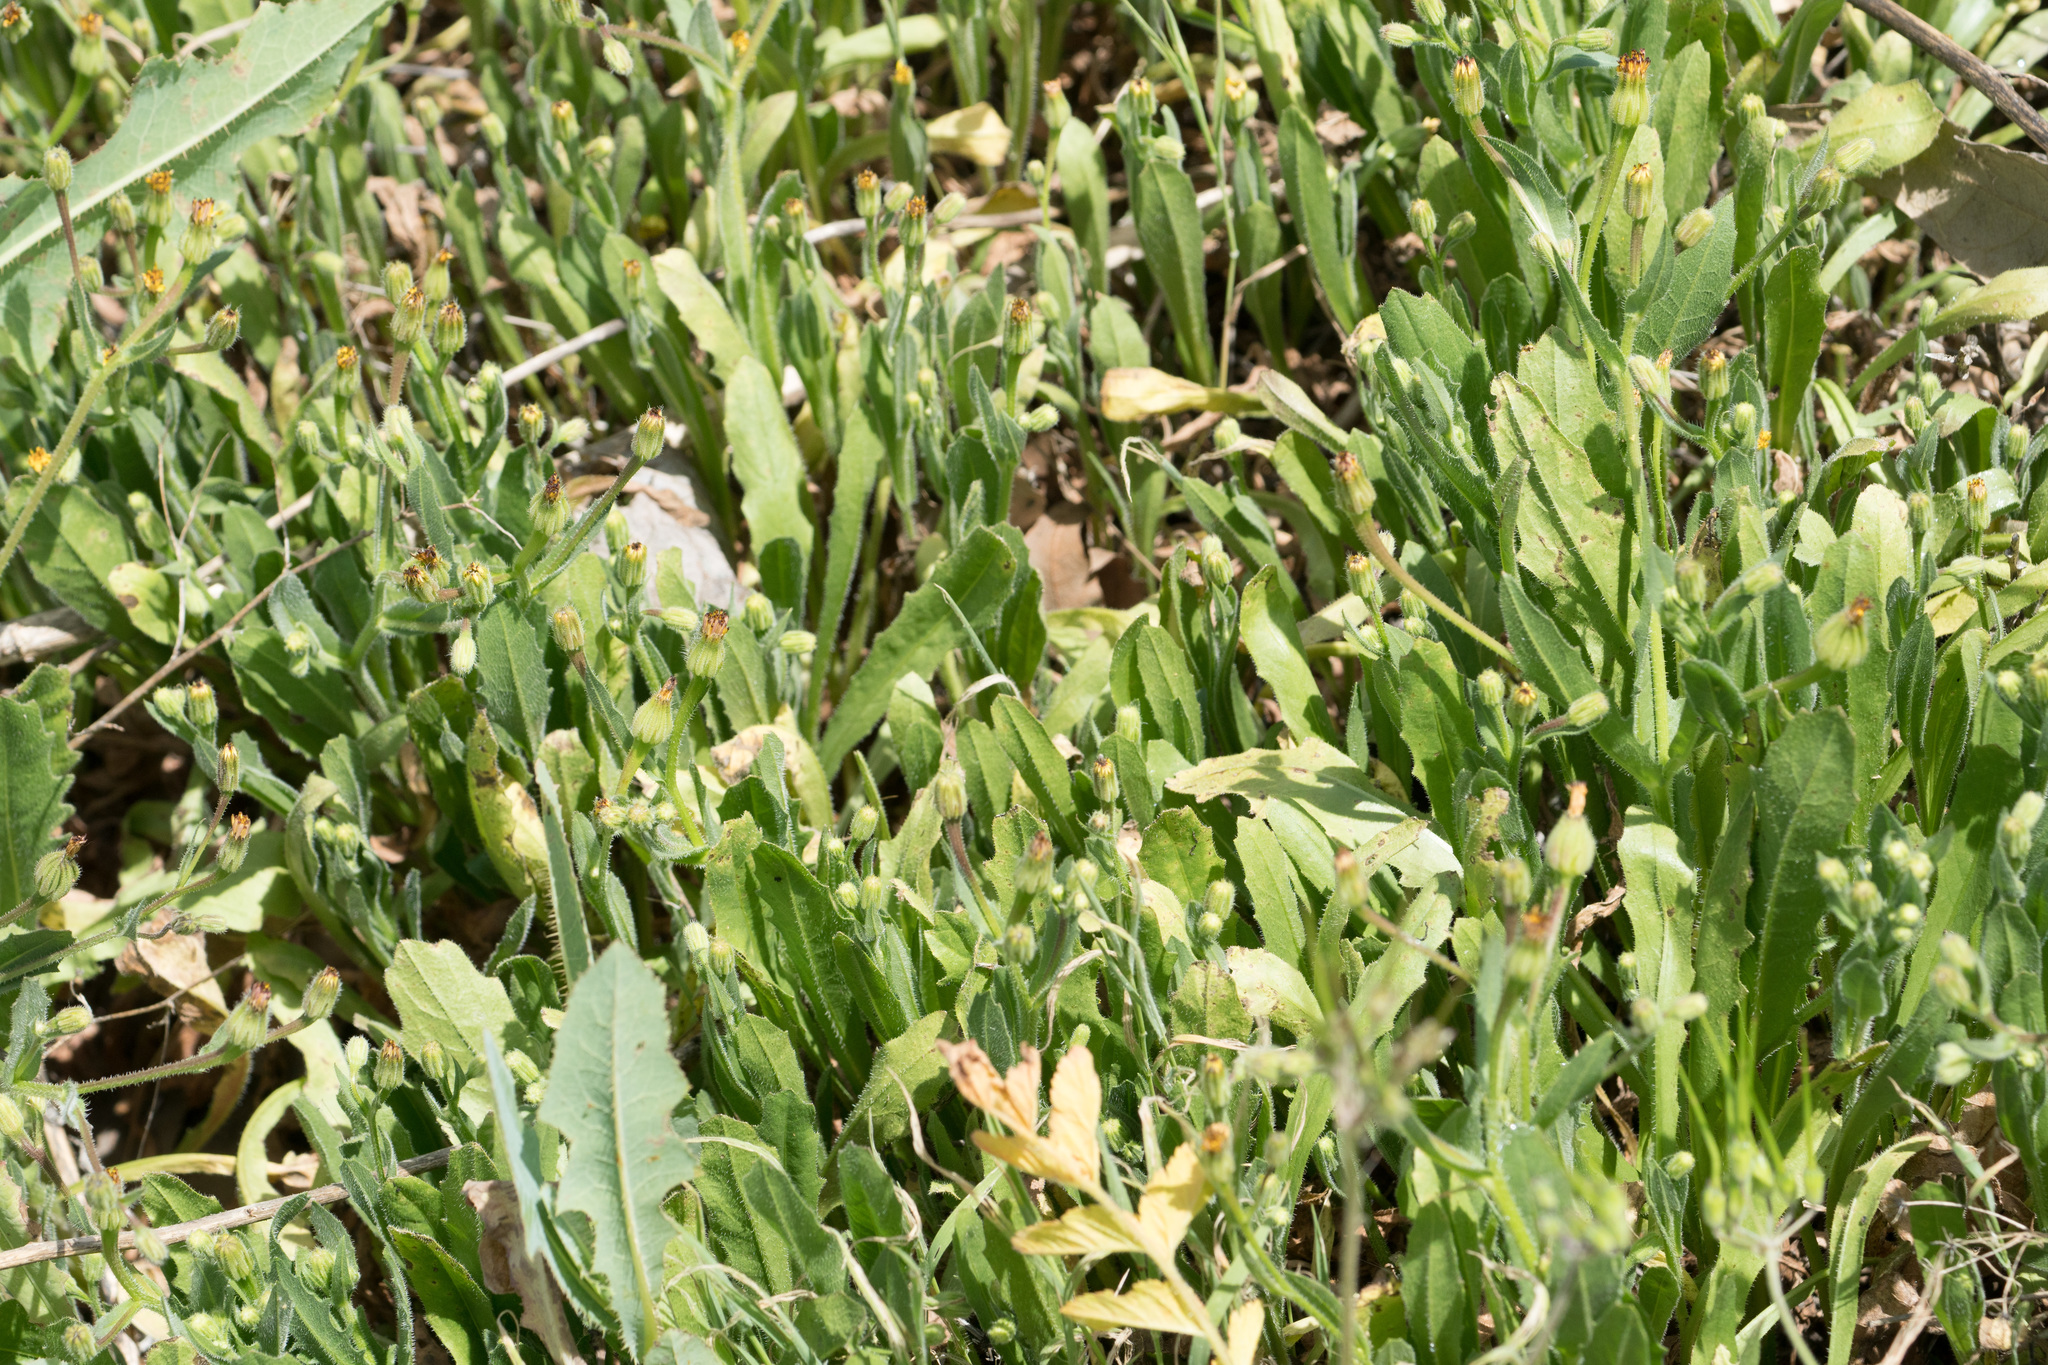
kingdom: Plantae
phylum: Tracheophyta
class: Magnoliopsida
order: Asterales
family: Asteraceae
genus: Hedypnois
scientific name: Hedypnois rhagadioloides
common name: Cretan weed
